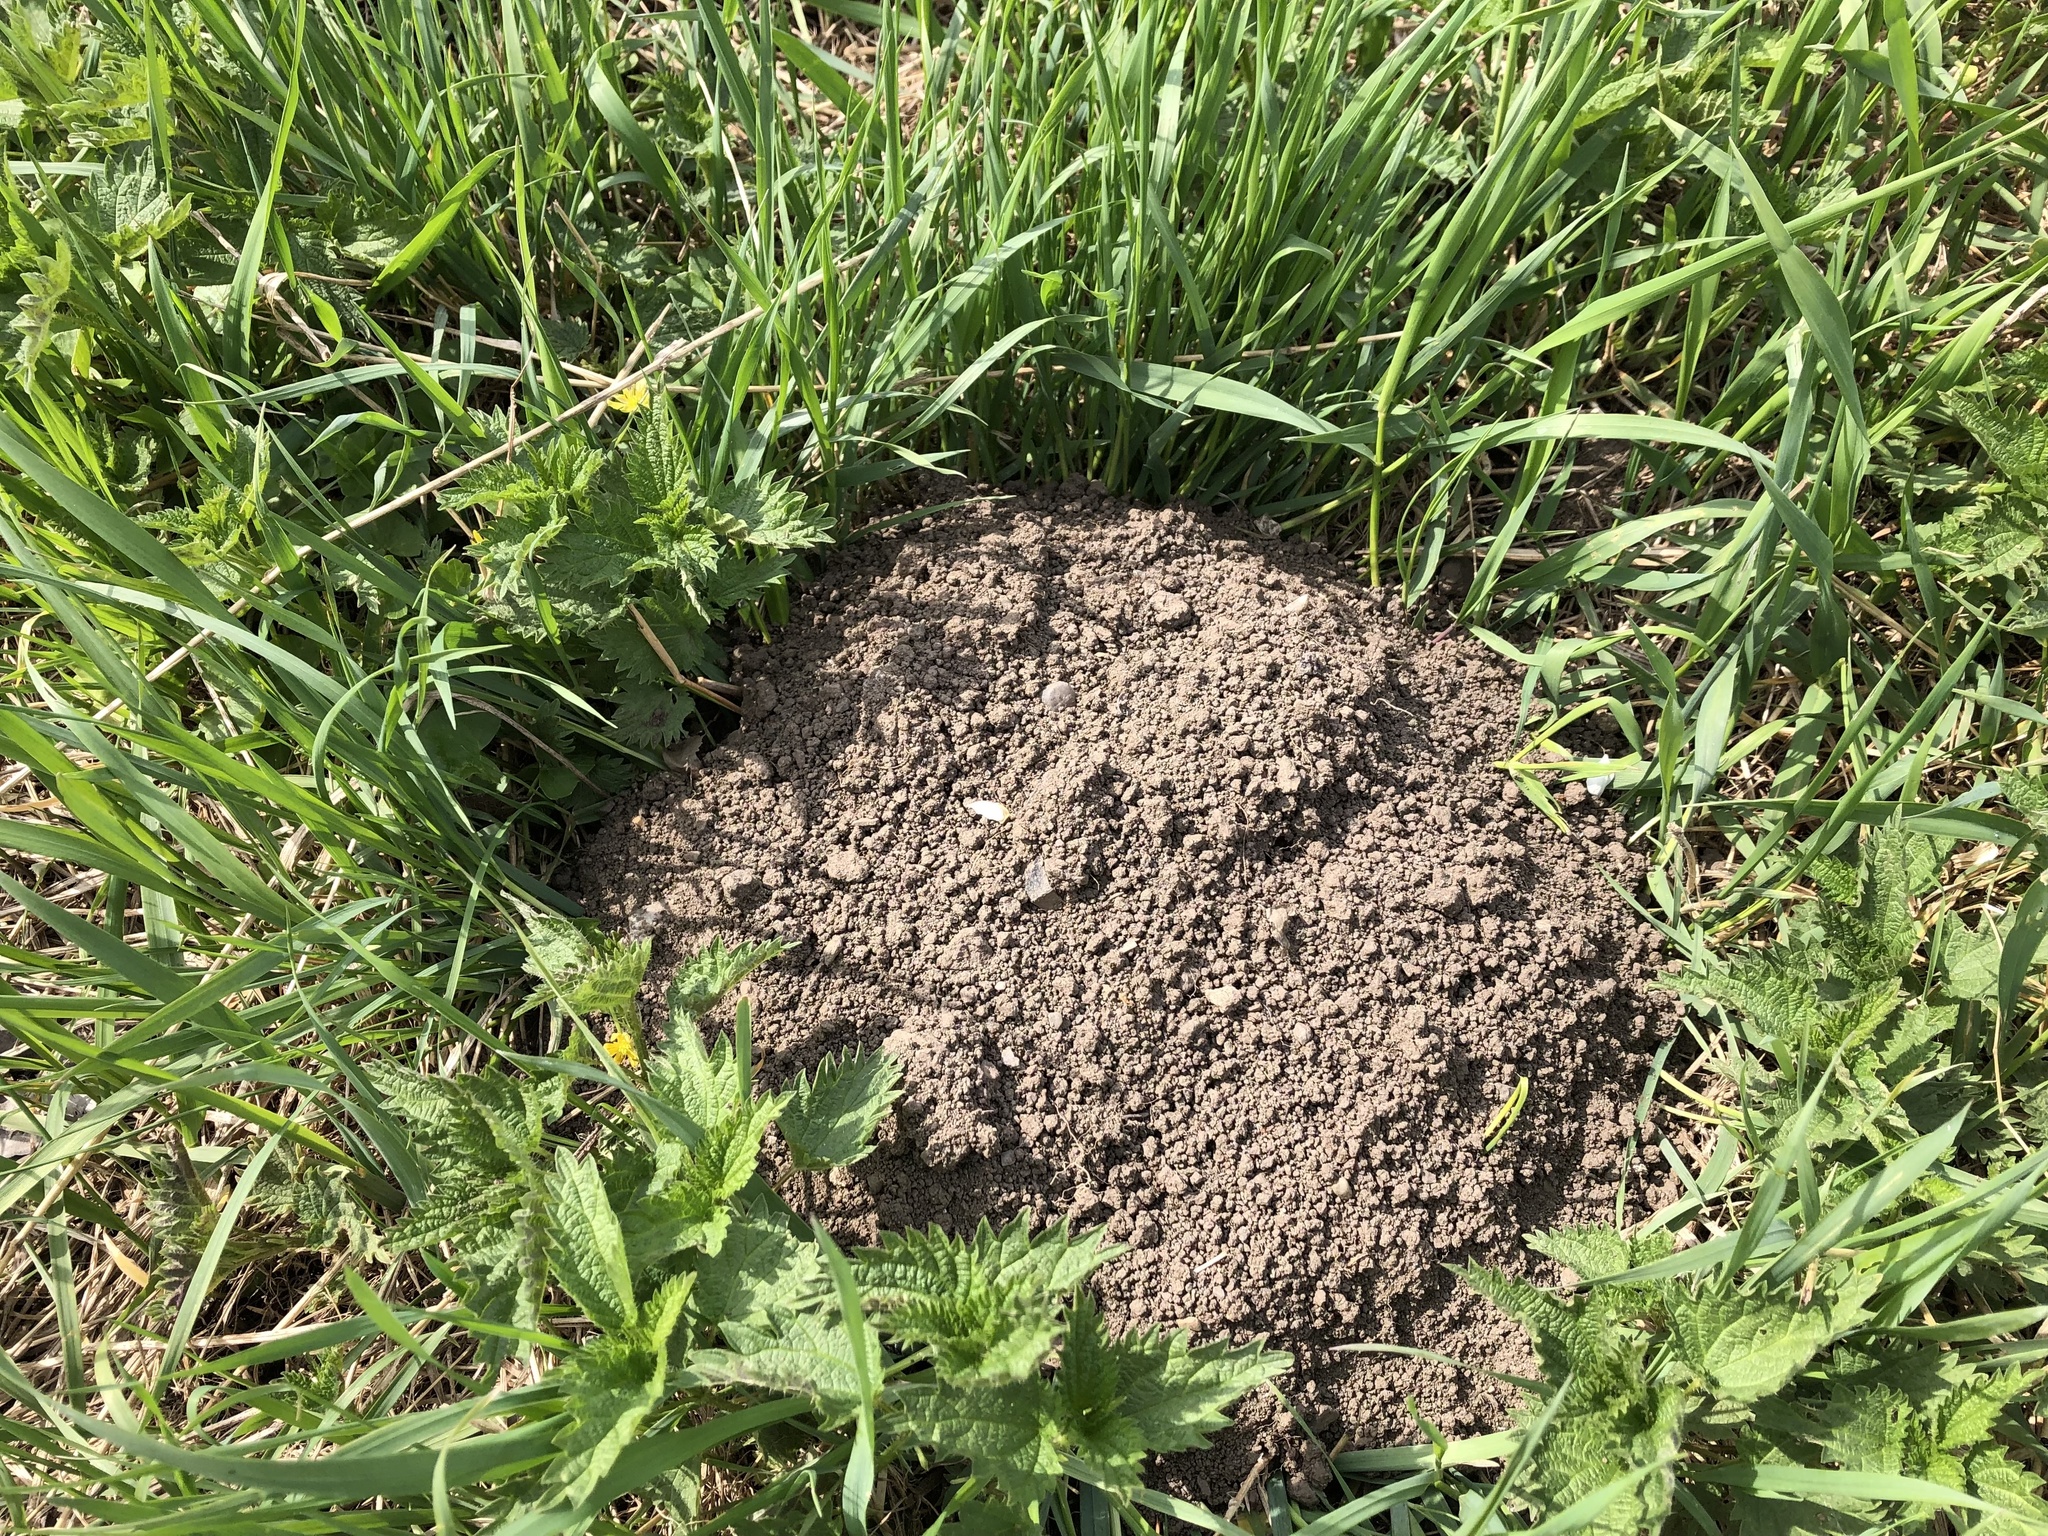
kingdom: Animalia
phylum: Chordata
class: Mammalia
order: Soricomorpha
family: Talpidae
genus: Talpa
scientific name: Talpa europaea
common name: European mole
